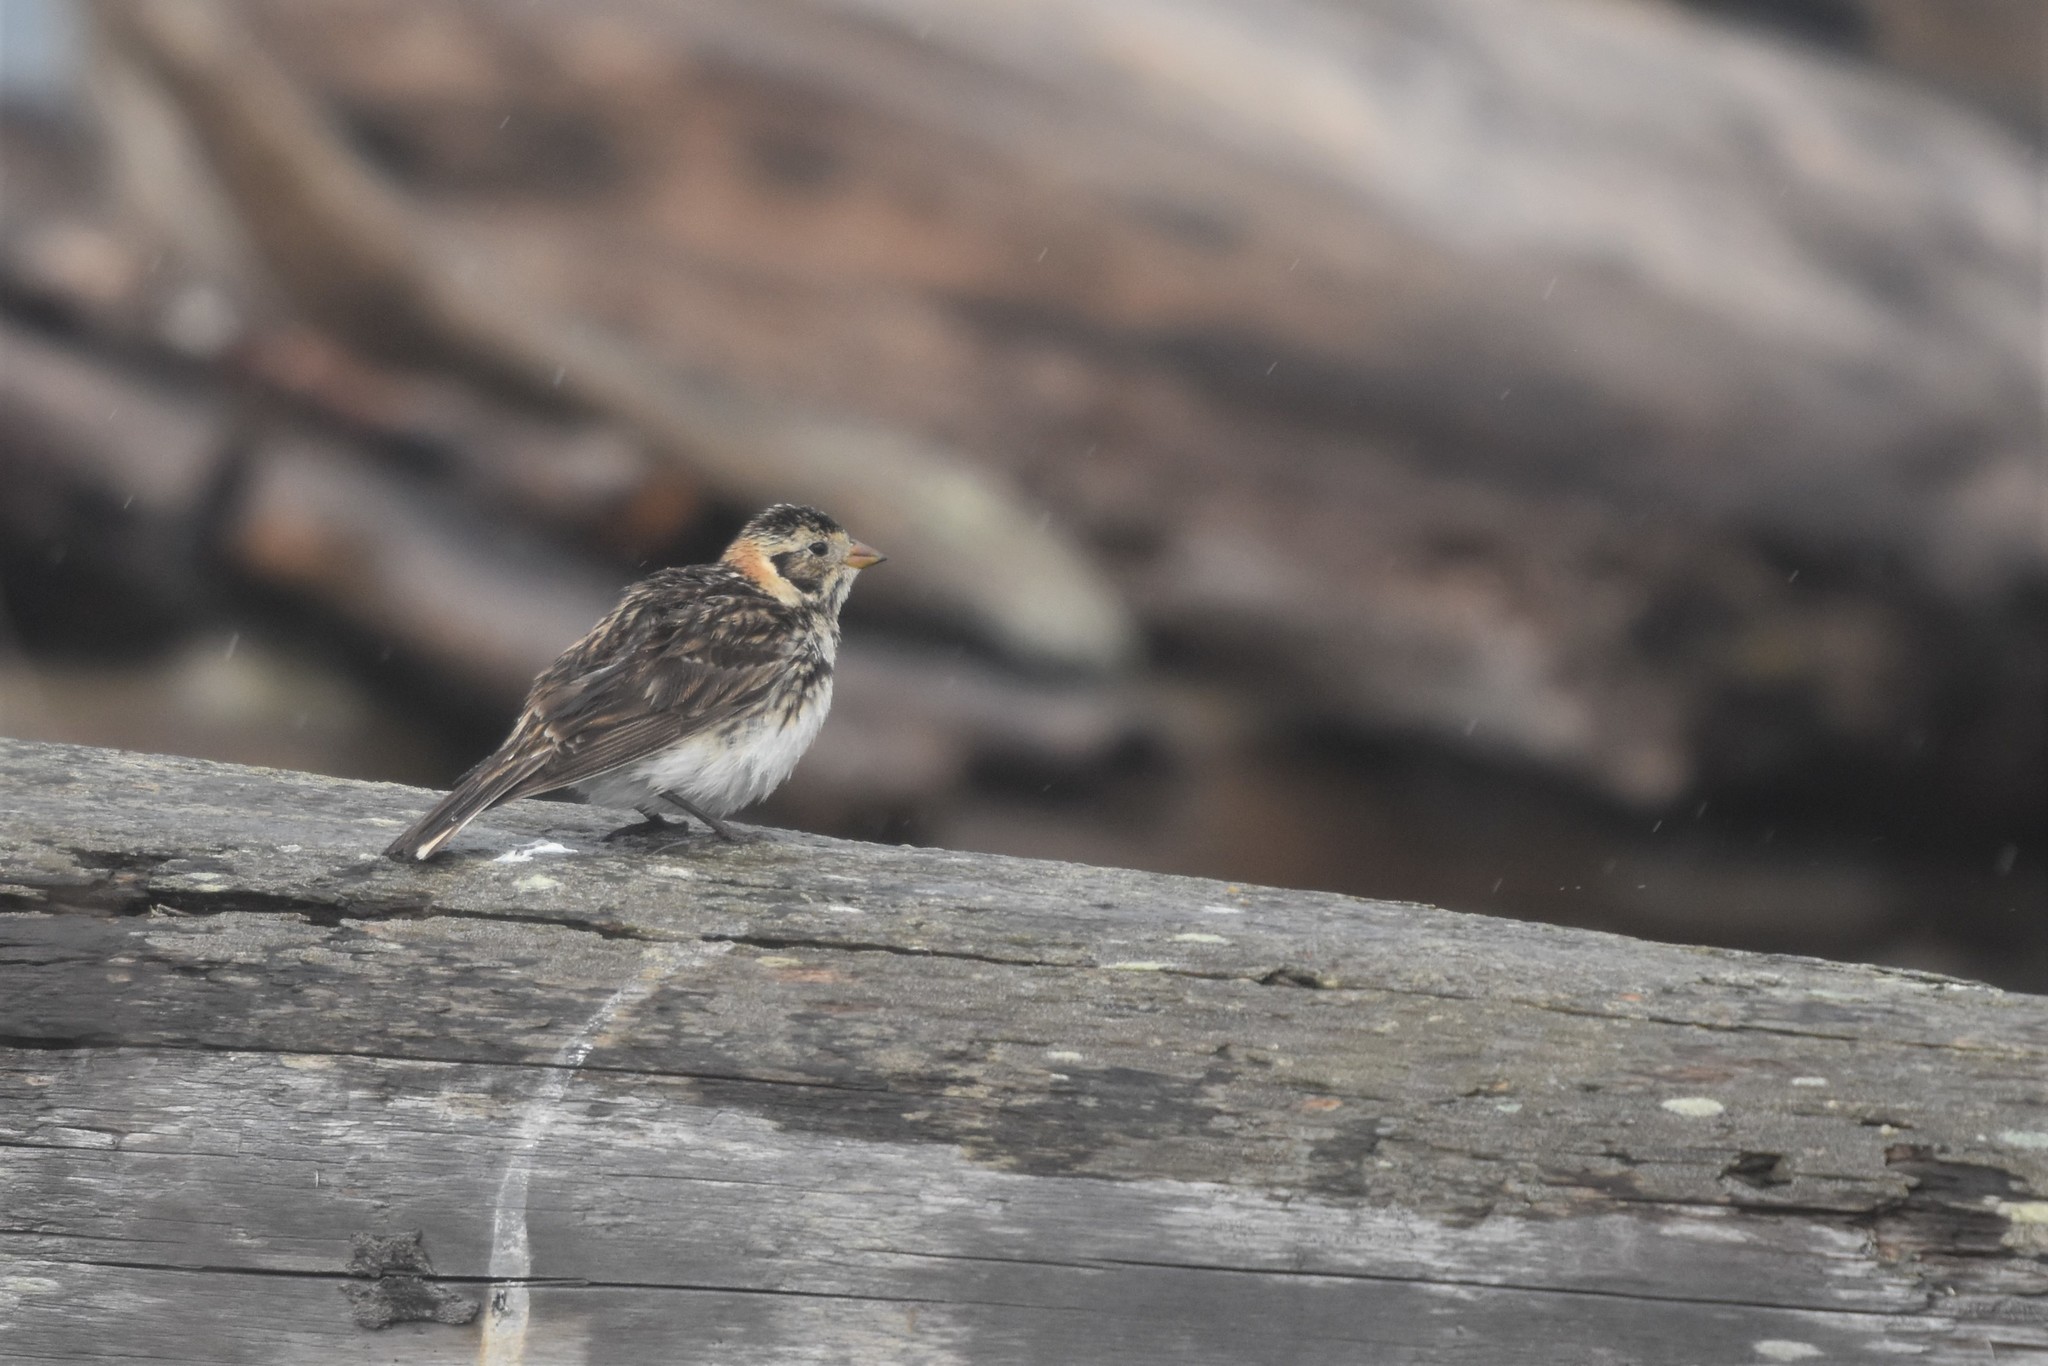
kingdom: Animalia
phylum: Chordata
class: Aves
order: Passeriformes
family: Calcariidae
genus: Calcarius
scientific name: Calcarius lapponicus
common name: Lapland longspur
